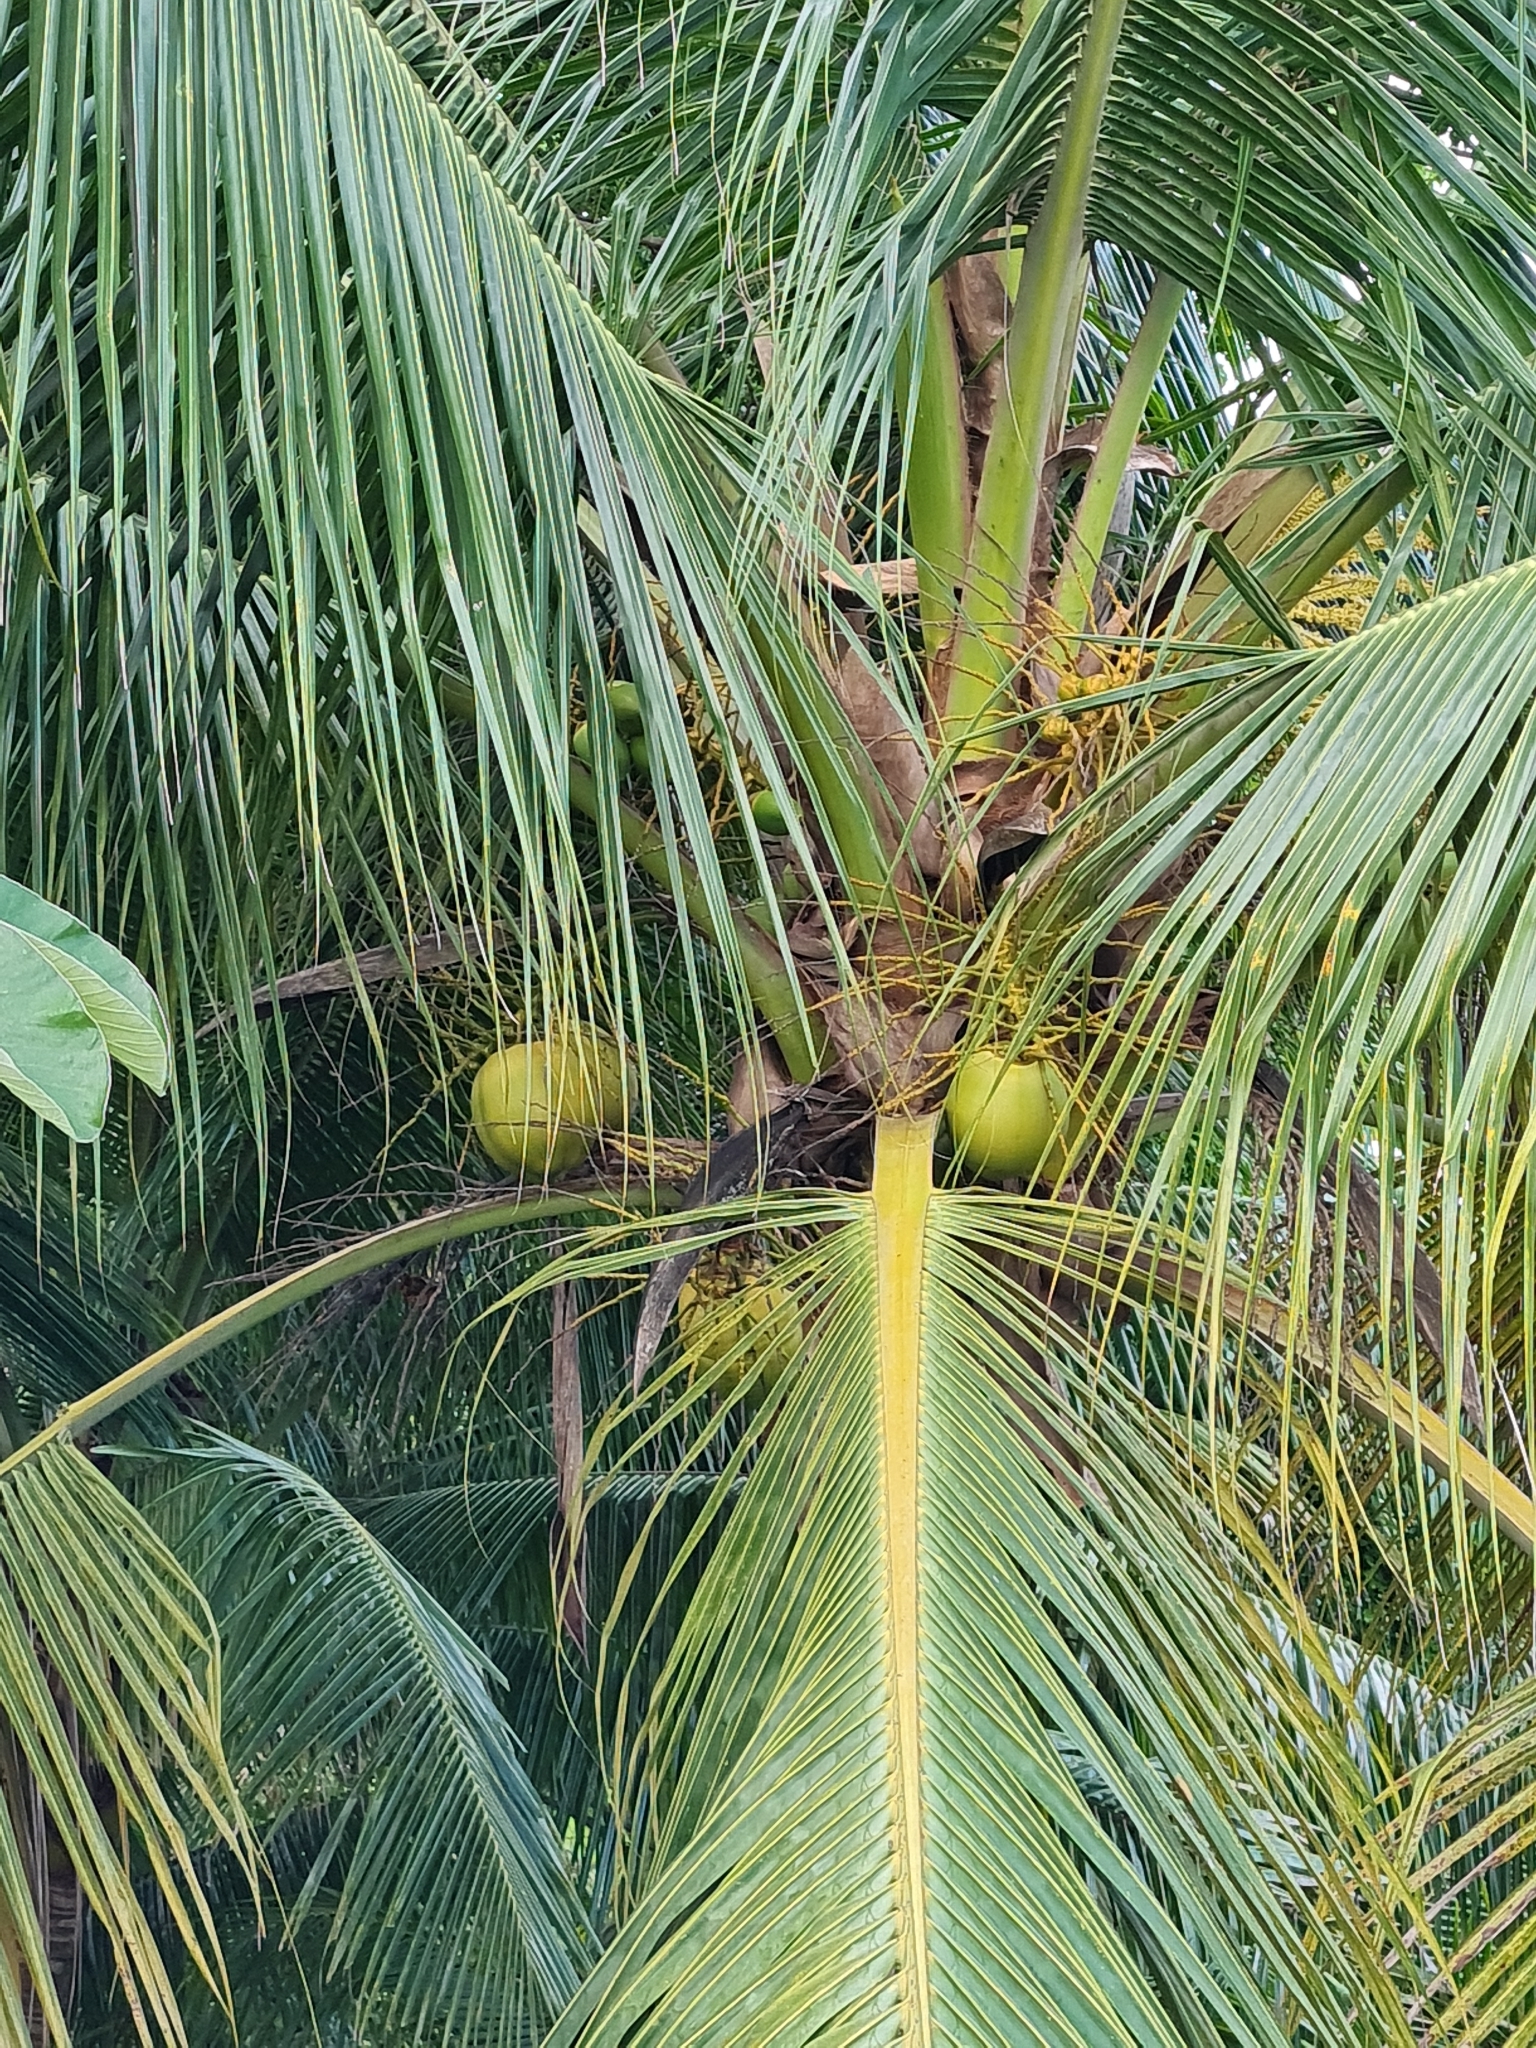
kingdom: Plantae
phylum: Tracheophyta
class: Liliopsida
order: Arecales
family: Arecaceae
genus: Cocos
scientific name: Cocos nucifera
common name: Coconut palm
